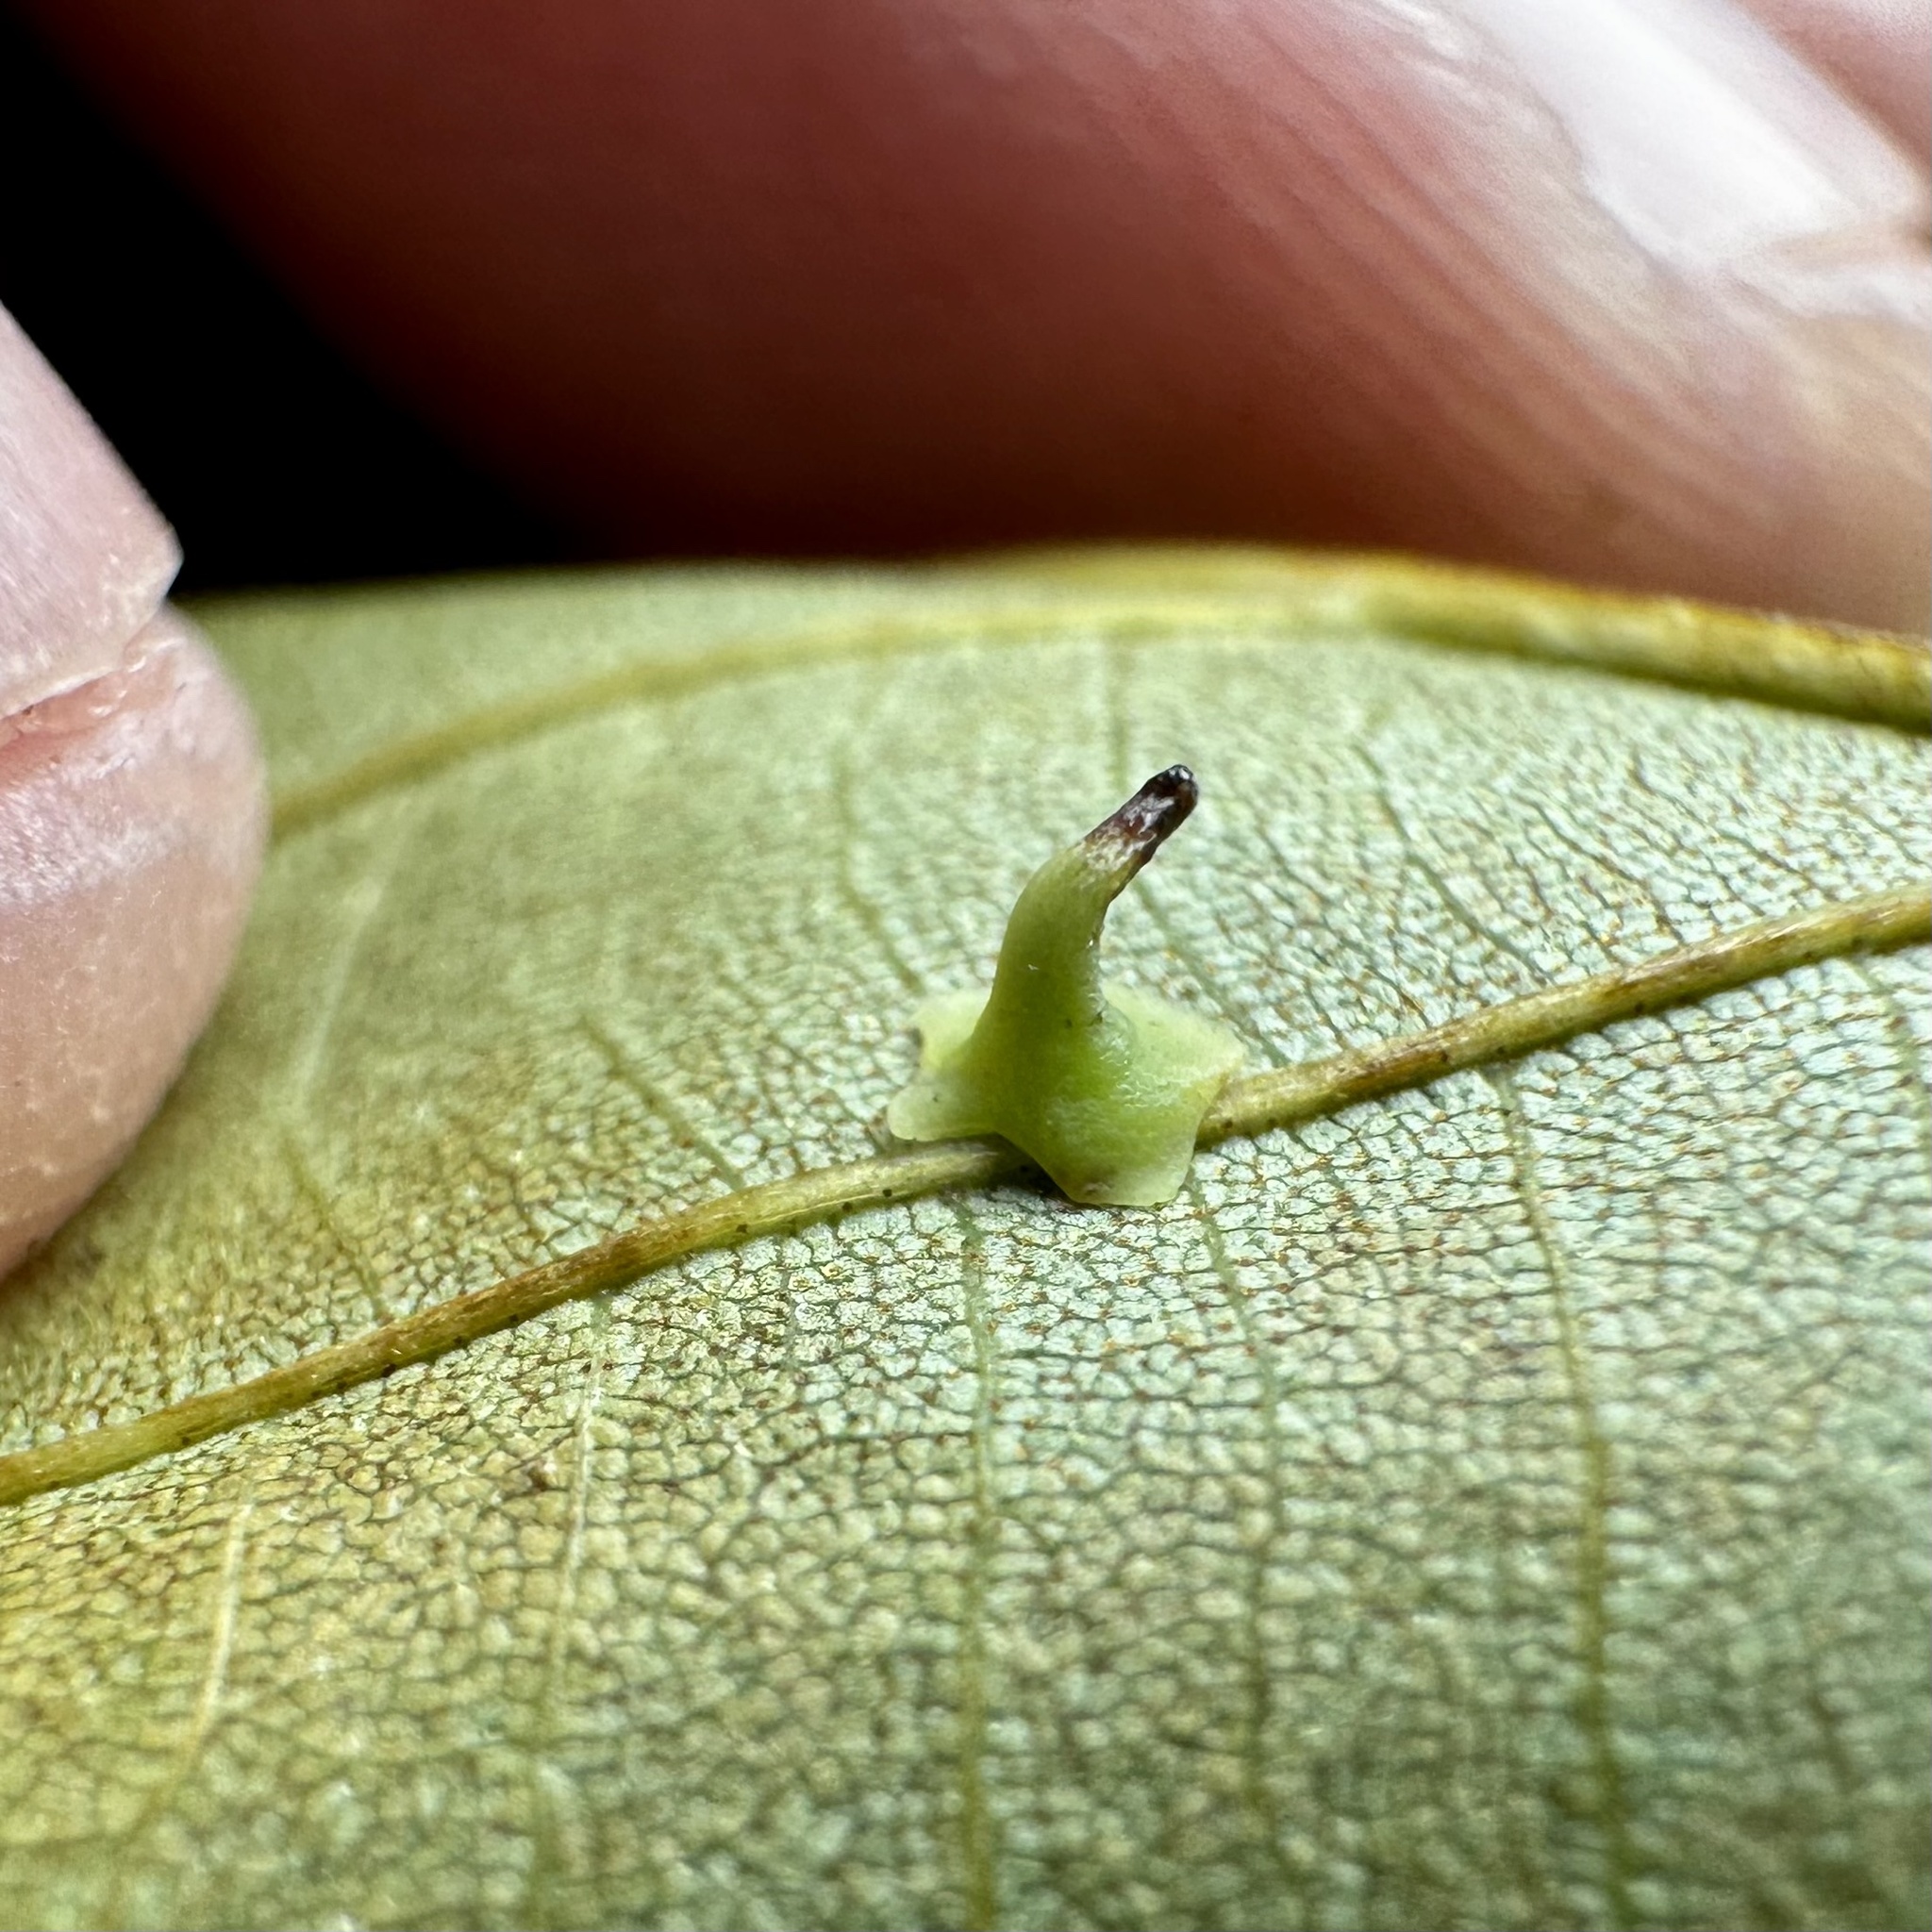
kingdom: Animalia
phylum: Arthropoda
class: Insecta
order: Diptera
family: Cecidomyiidae
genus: Caryomyia
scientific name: Caryomyia stellata
